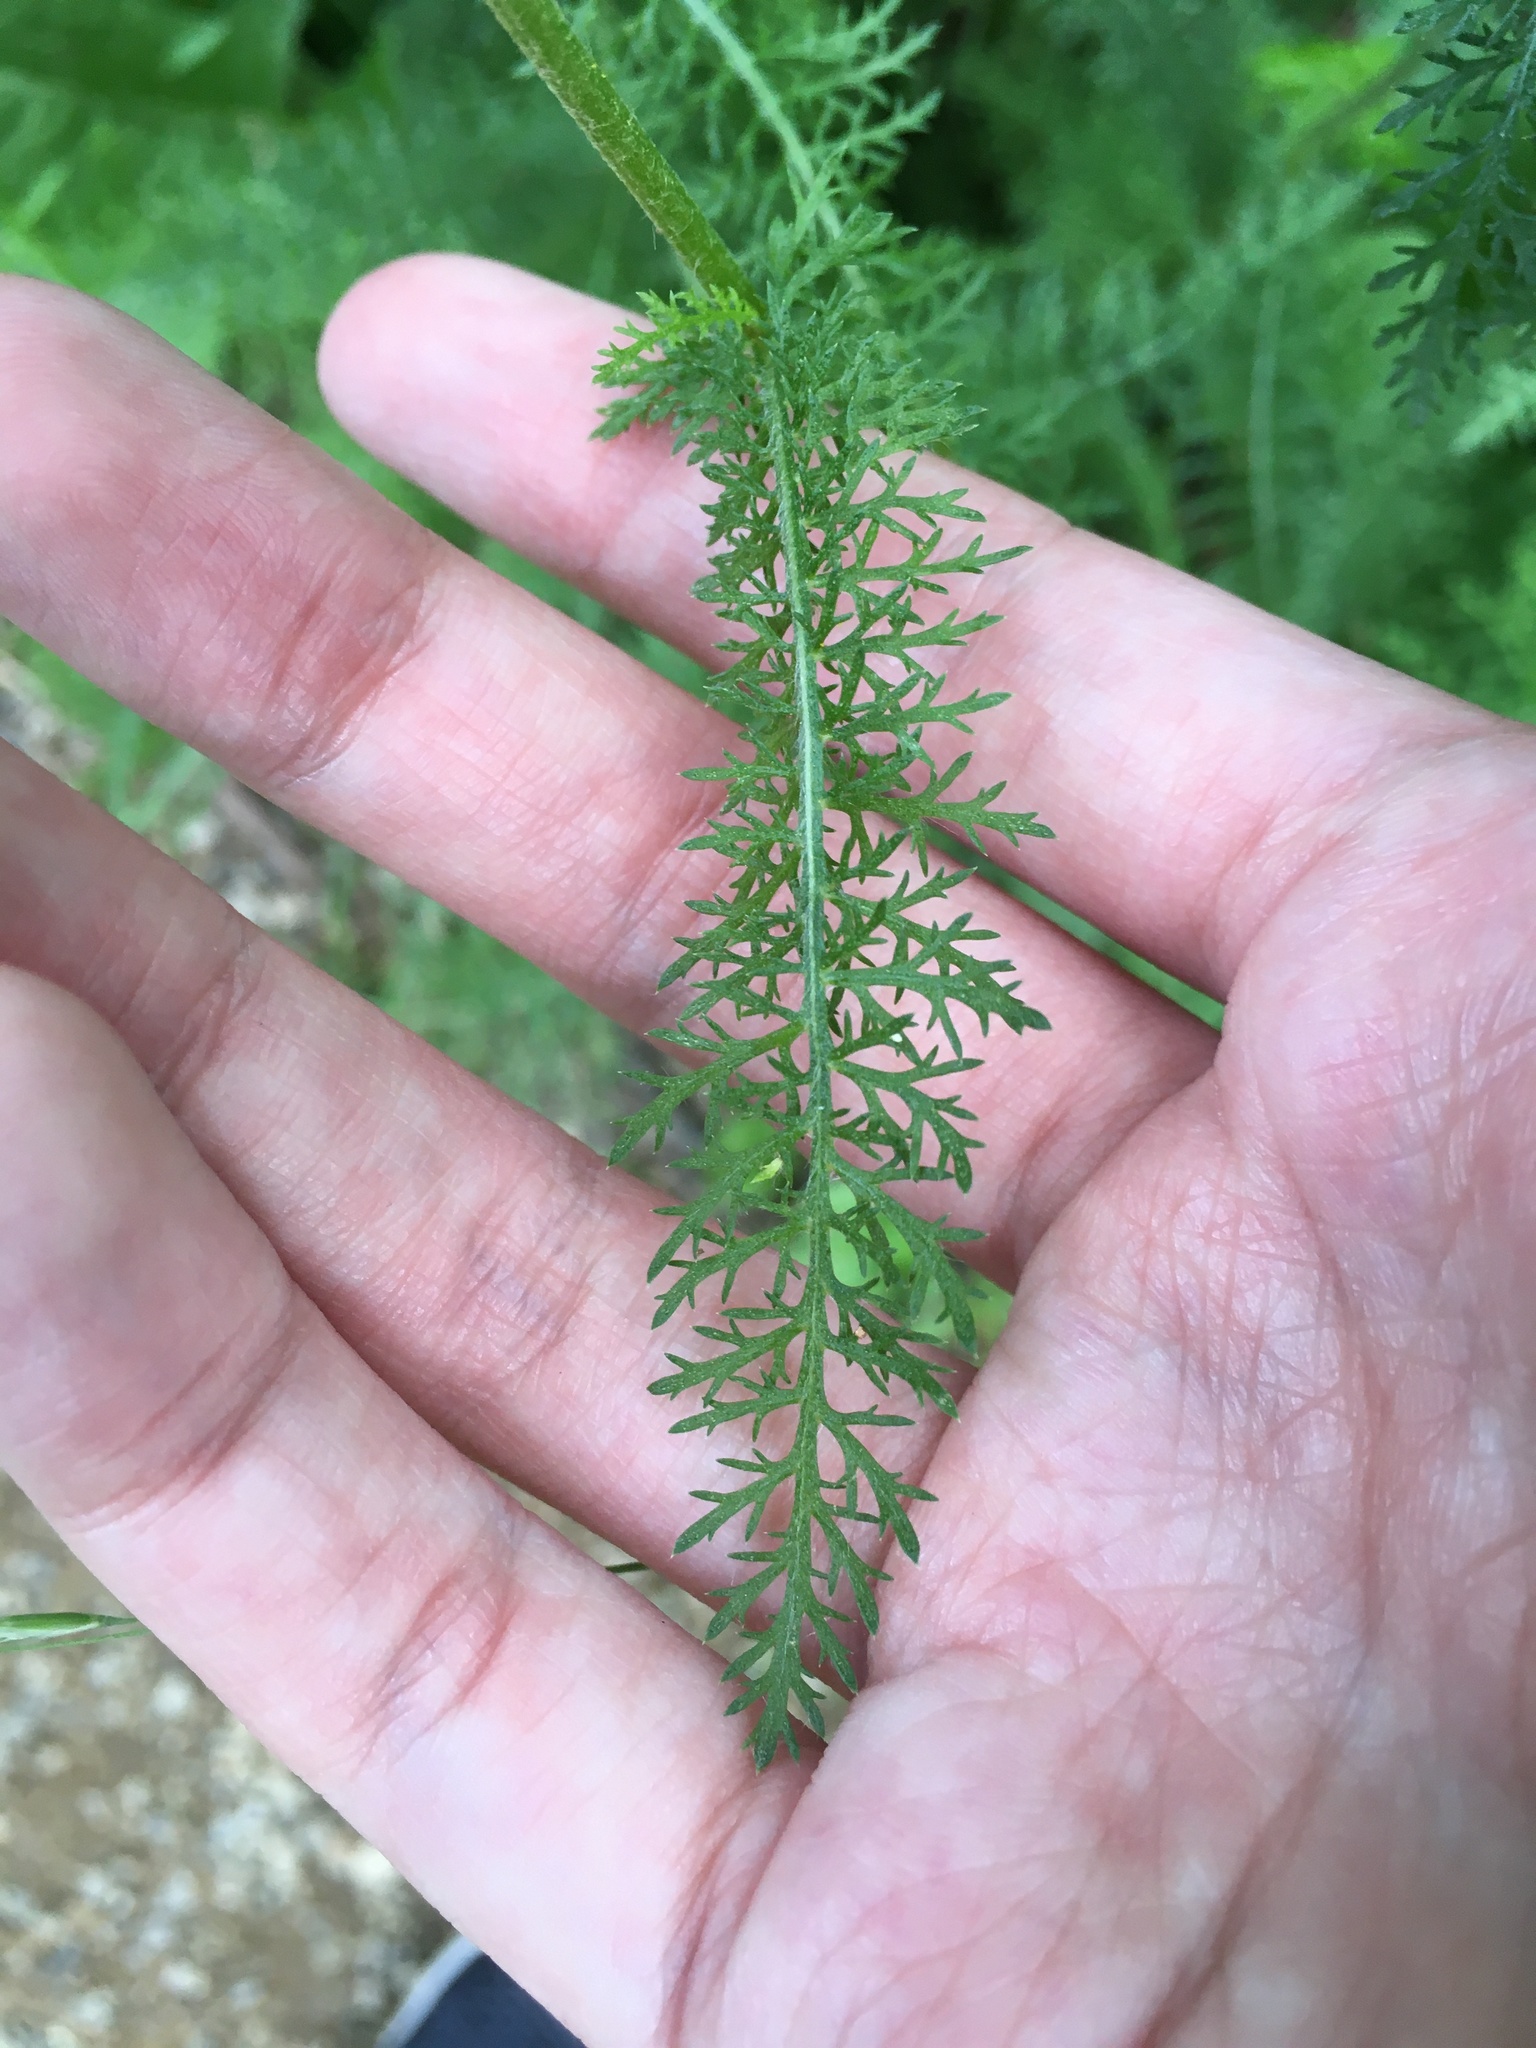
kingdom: Plantae
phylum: Tracheophyta
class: Magnoliopsida
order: Asterales
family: Asteraceae
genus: Achillea
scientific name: Achillea millefolium
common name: Yarrow
